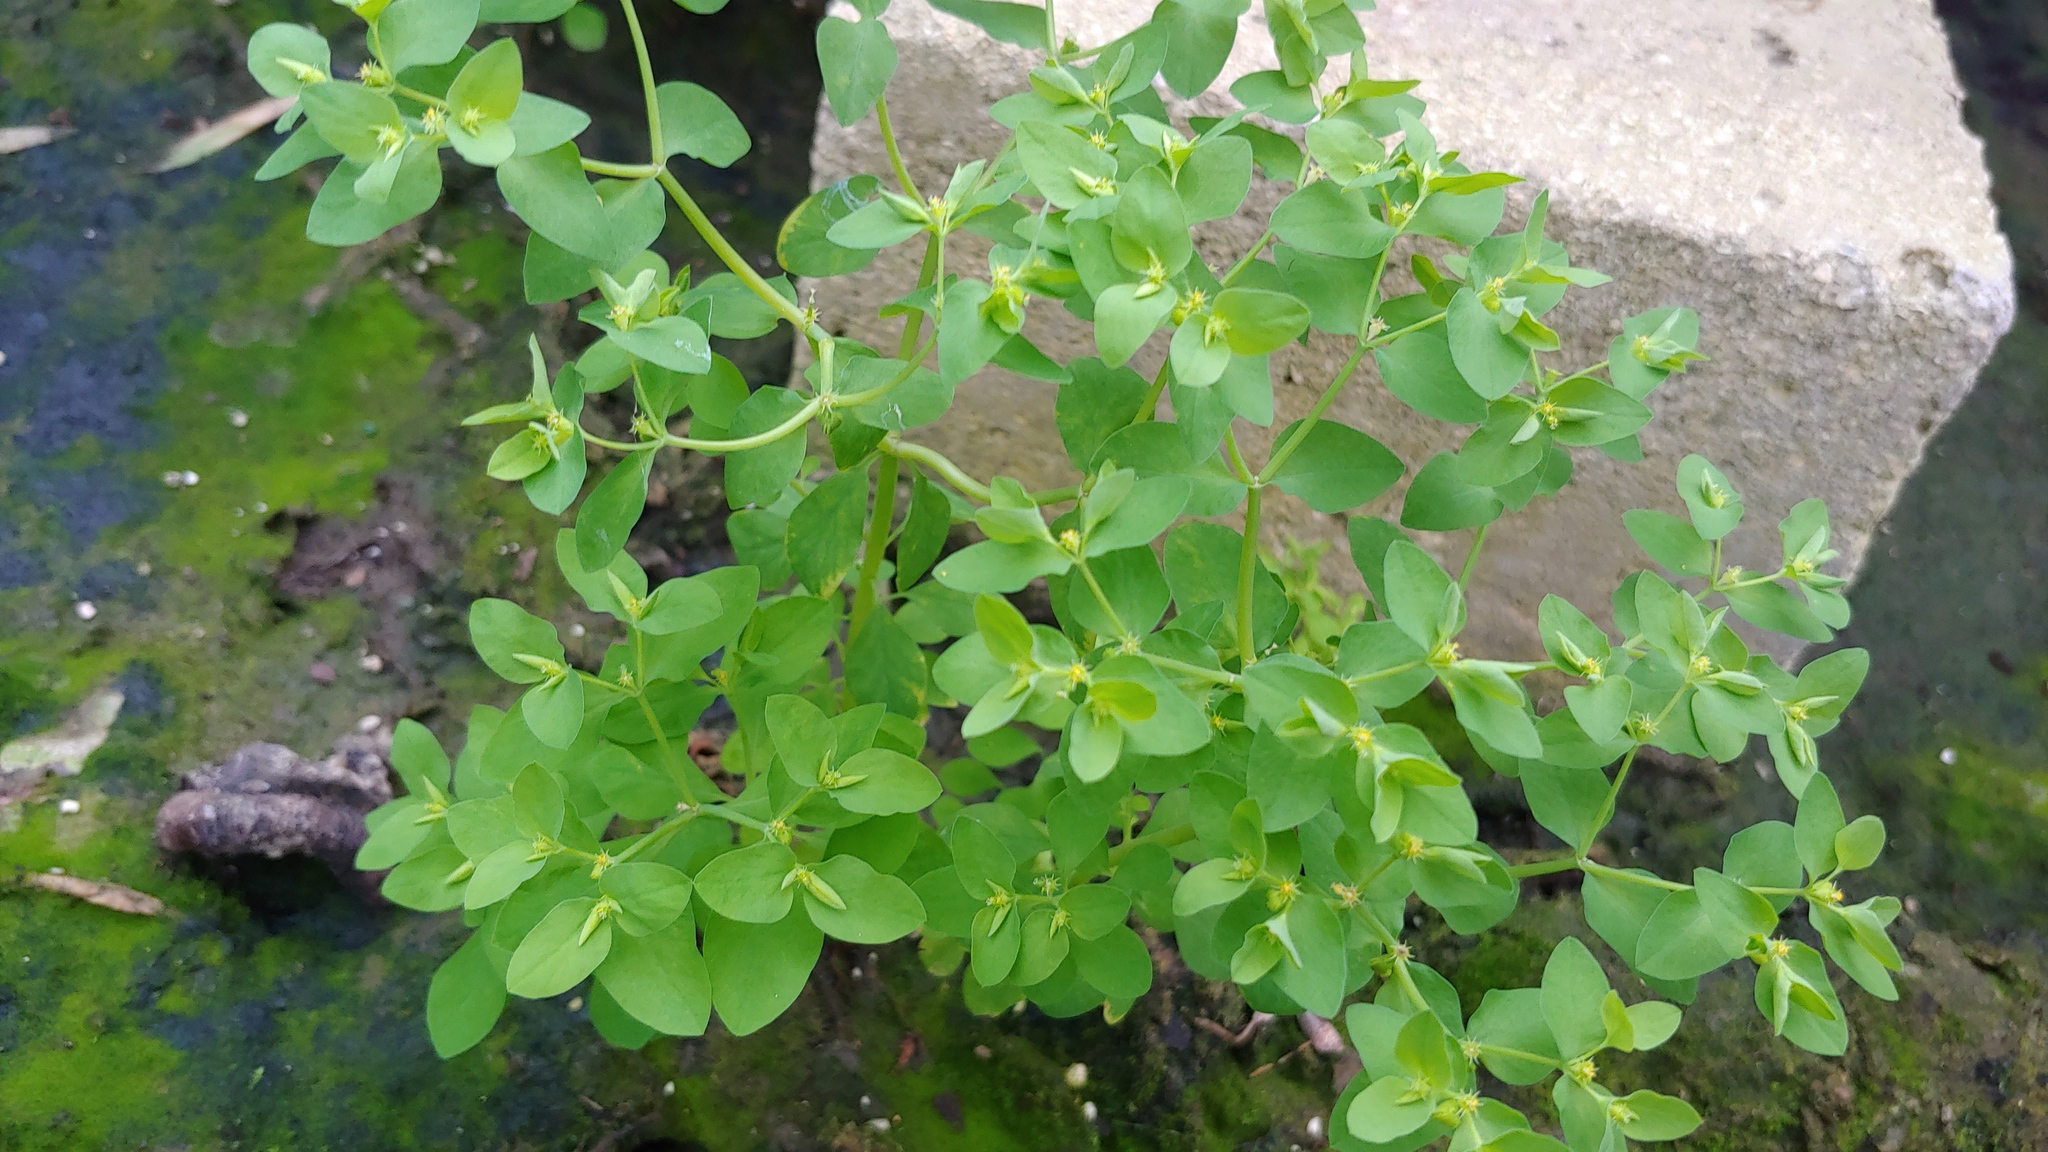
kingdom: Plantae
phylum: Tracheophyta
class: Magnoliopsida
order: Malpighiales
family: Euphorbiaceae
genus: Euphorbia
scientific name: Euphorbia peplus
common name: Petty spurge
